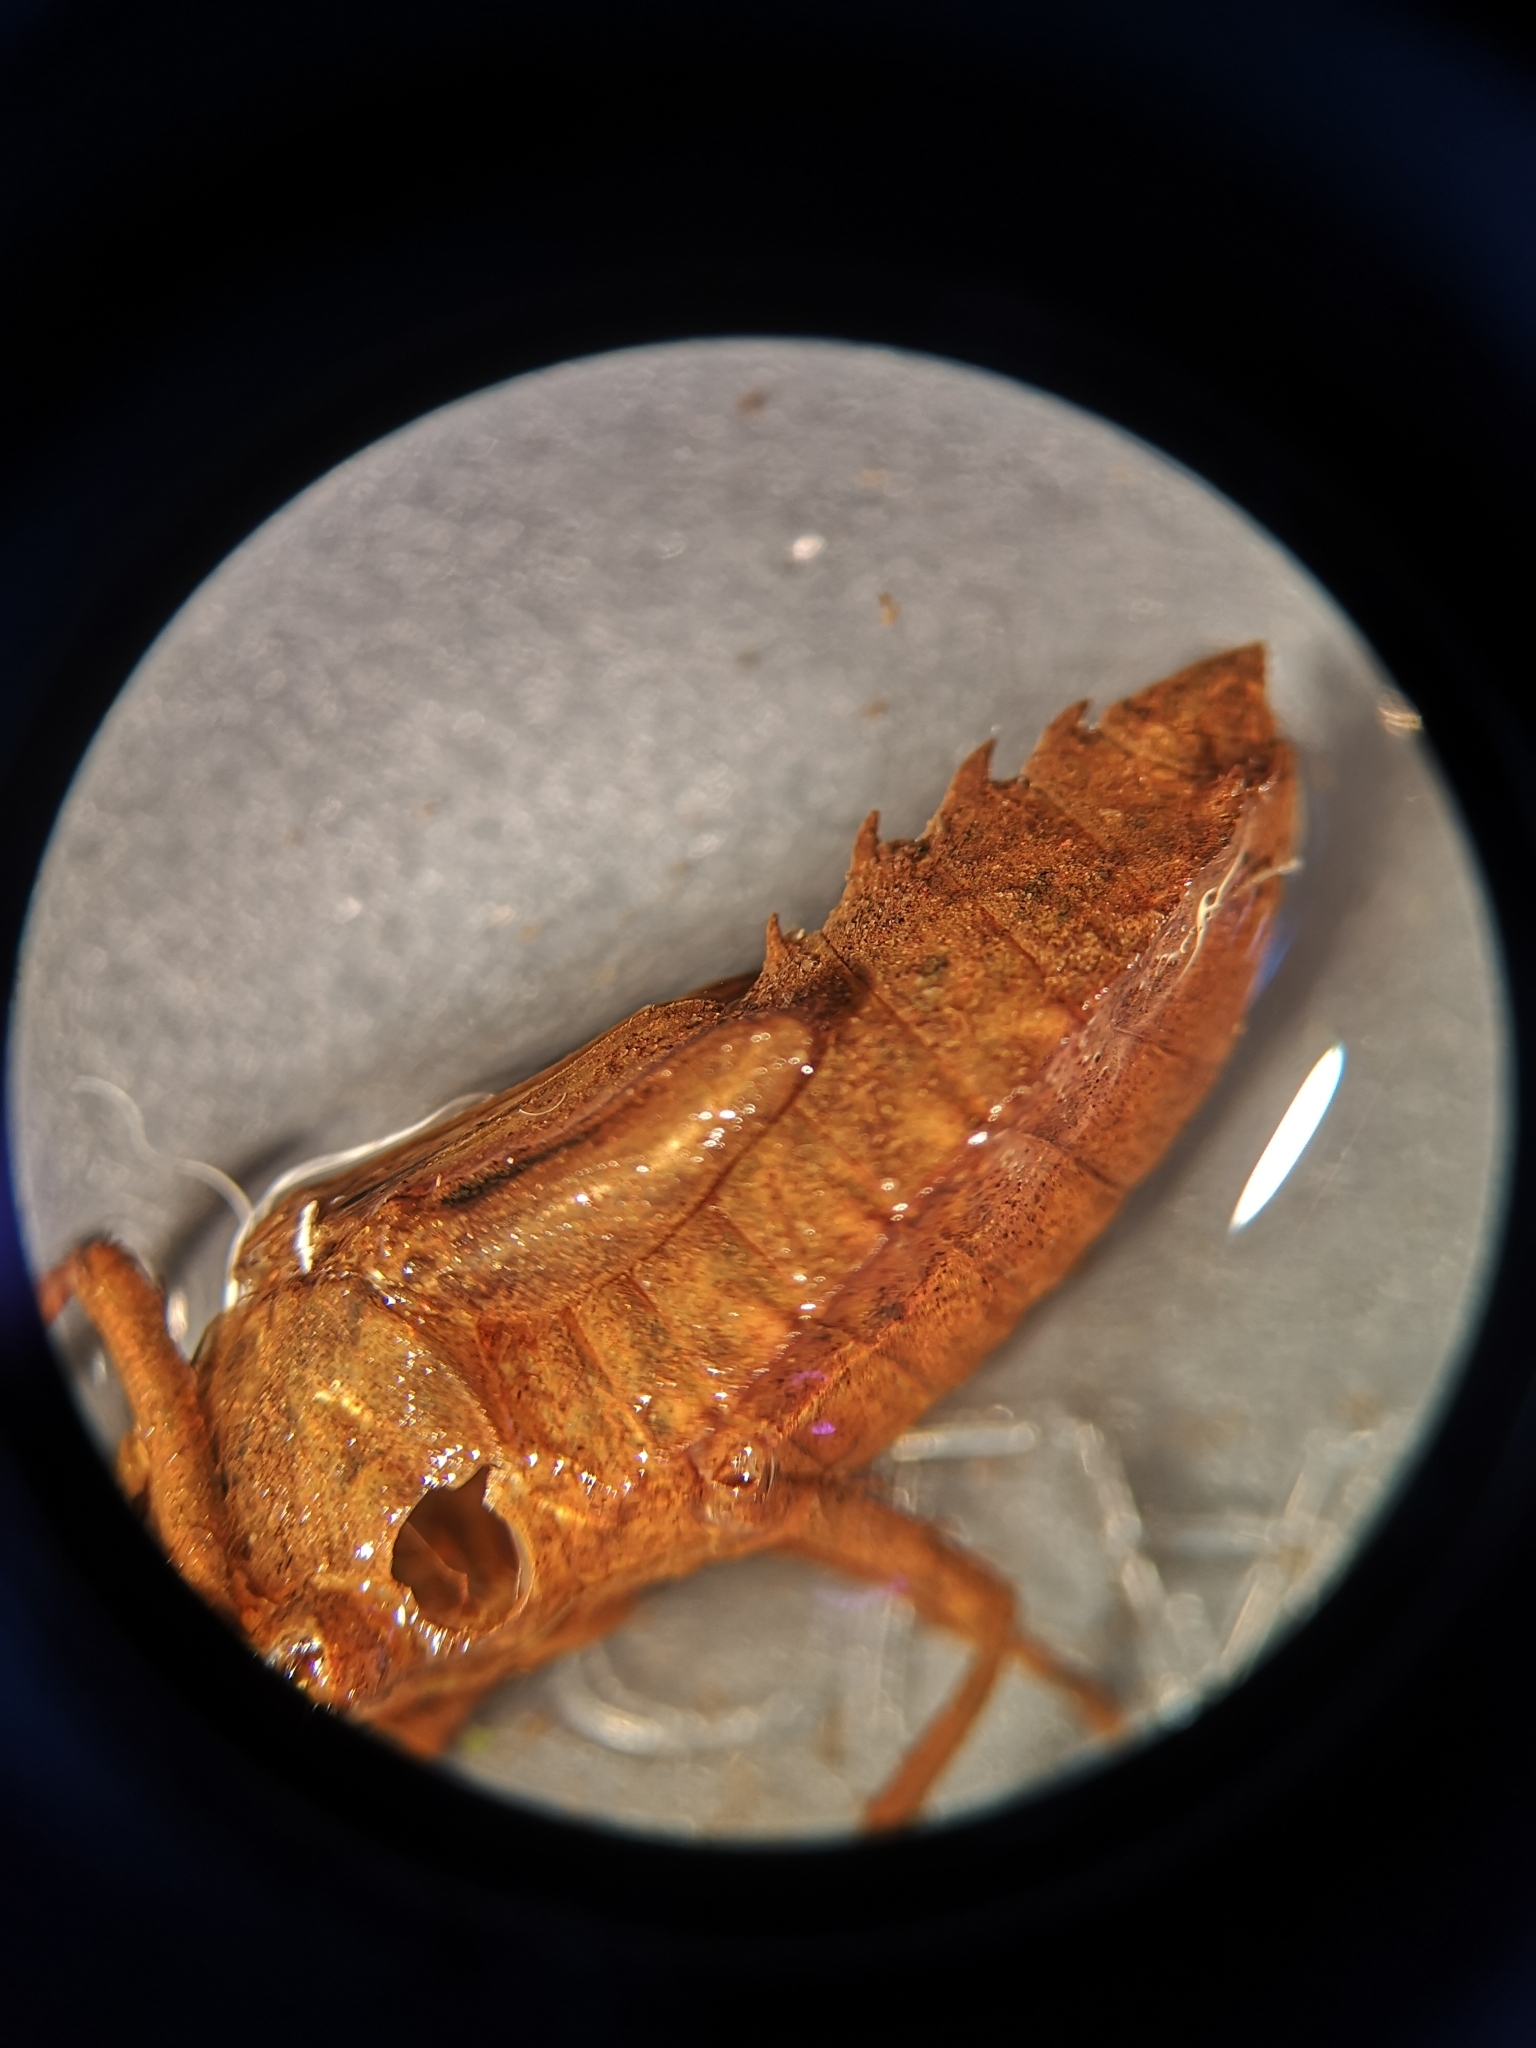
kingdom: Animalia
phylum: Arthropoda
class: Insecta
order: Odonata
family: Corduliidae
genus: Somatochlora
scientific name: Somatochlora metallica
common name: Brilliant emerald
